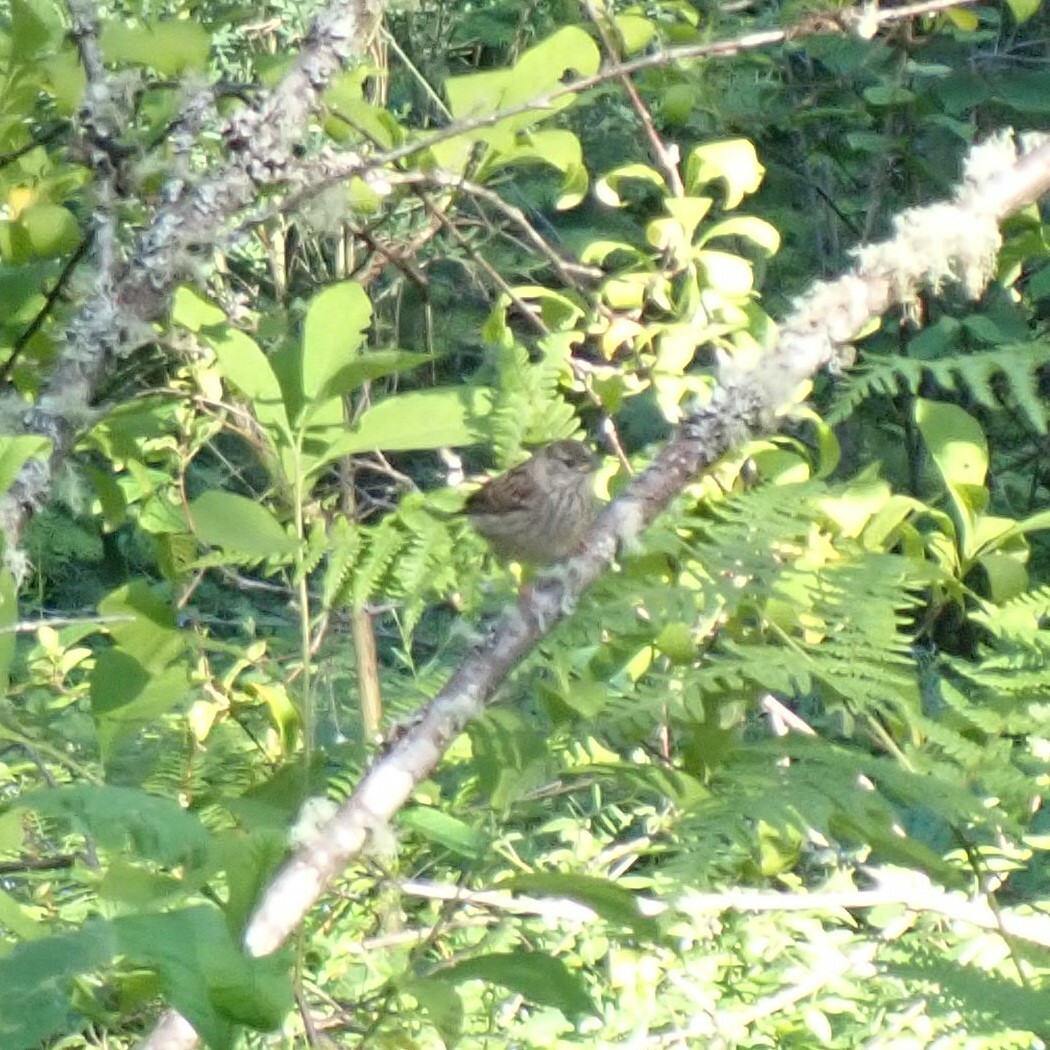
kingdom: Animalia
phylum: Chordata
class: Aves
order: Passeriformes
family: Passerellidae
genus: Zonotrichia
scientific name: Zonotrichia leucophrys
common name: White-crowned sparrow
